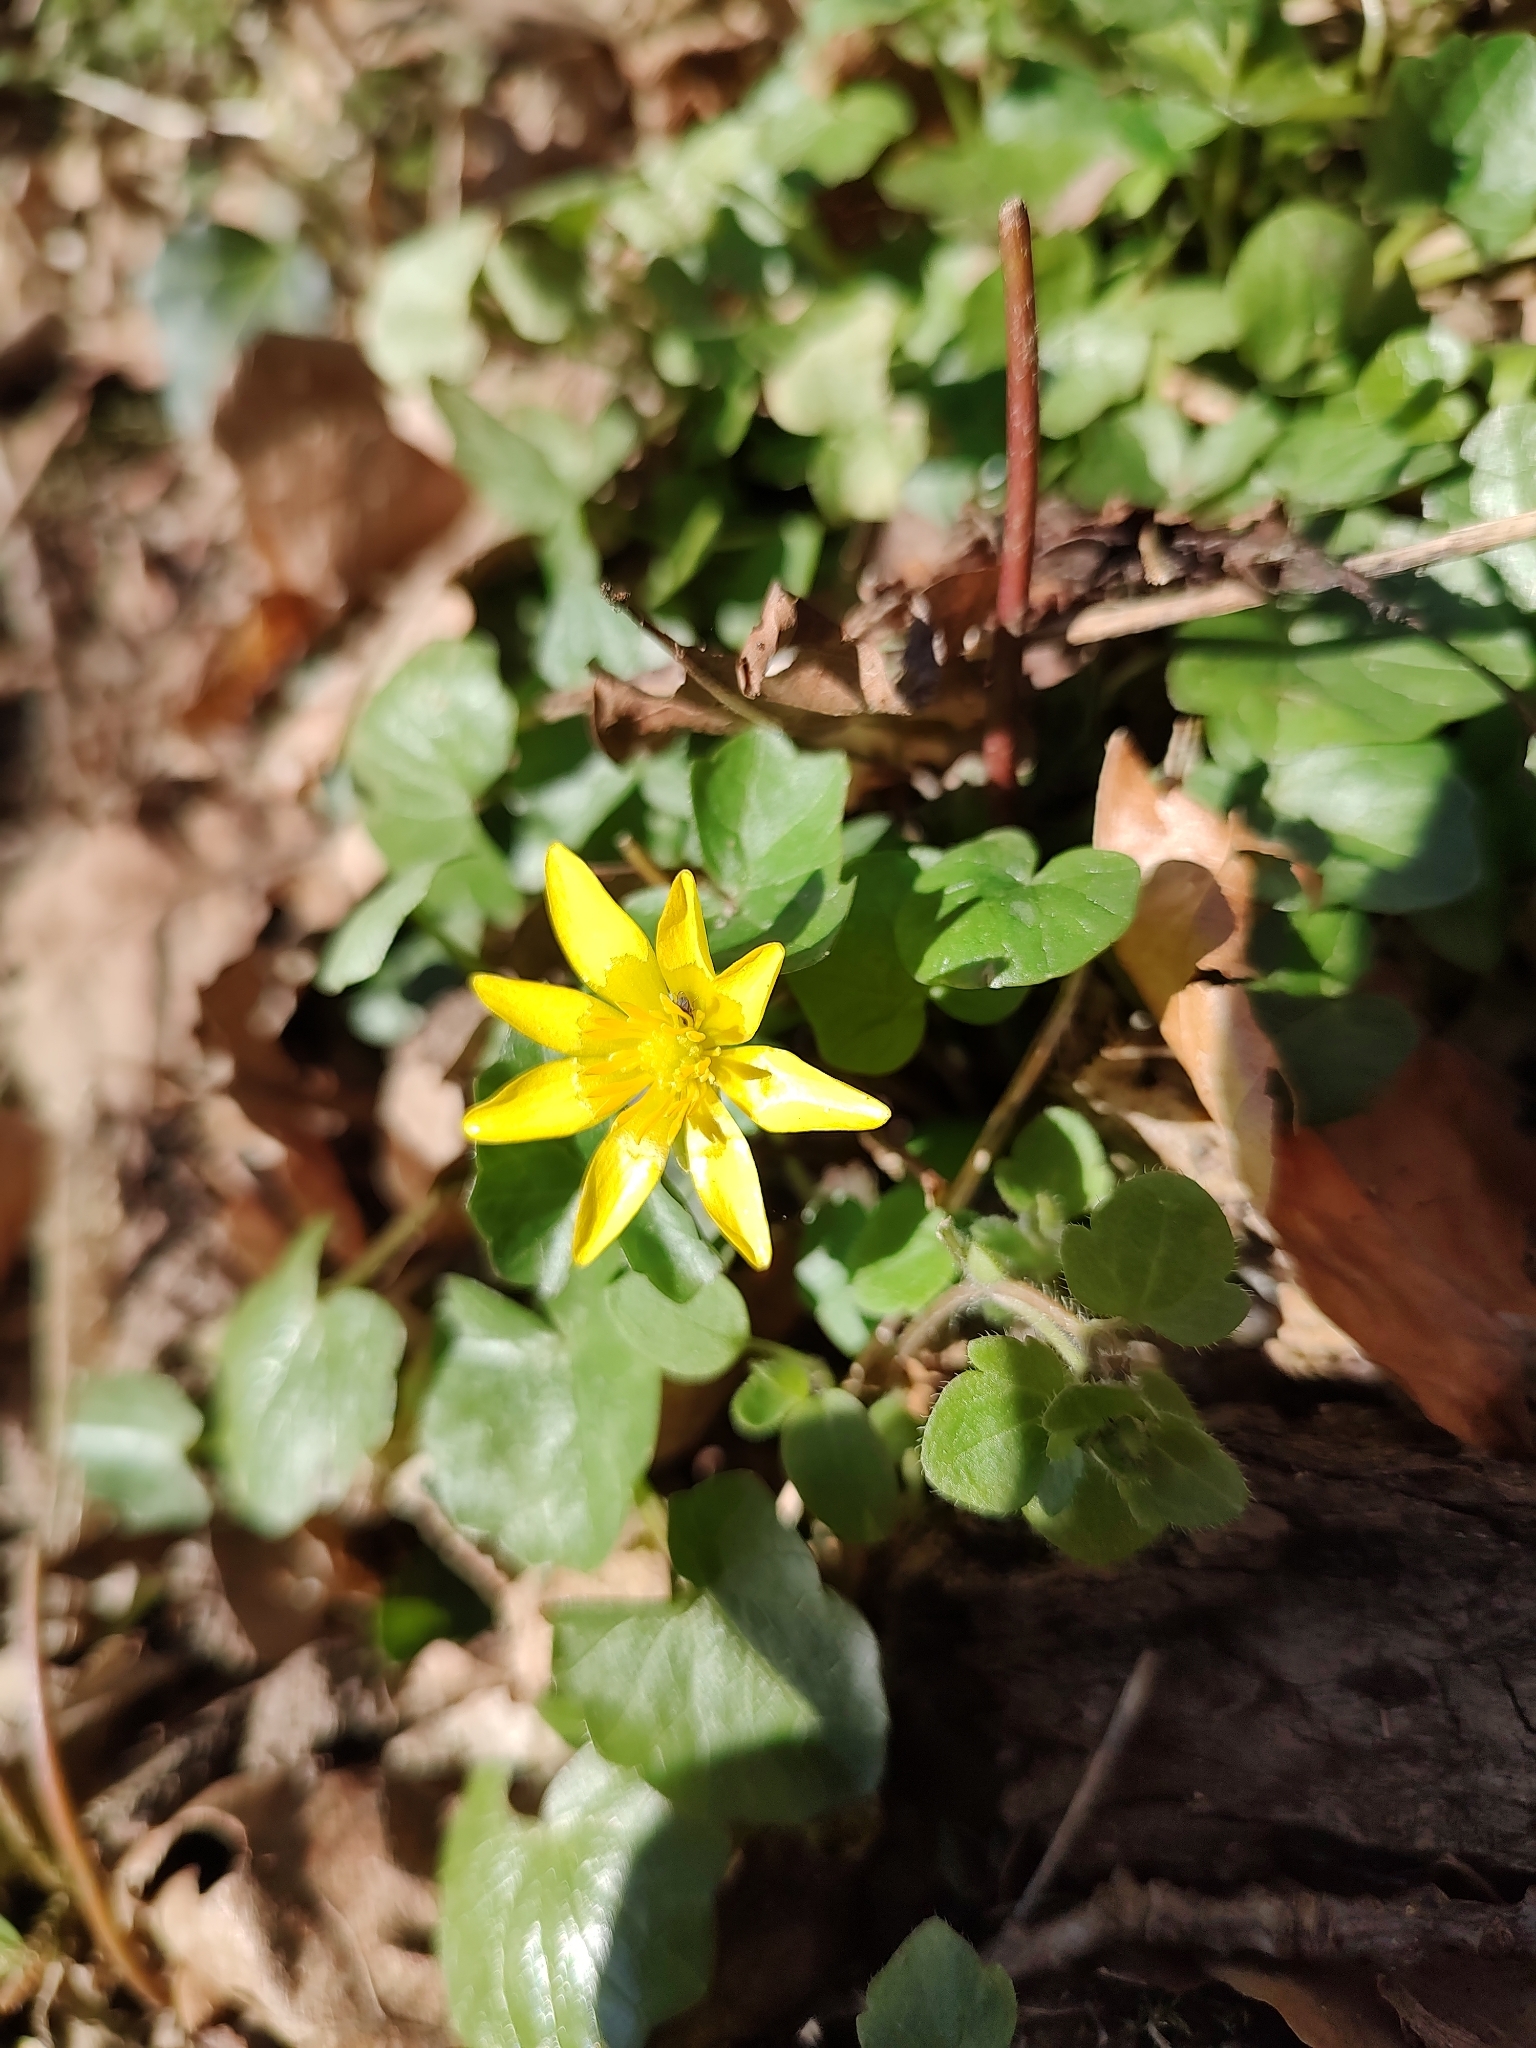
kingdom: Plantae
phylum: Tracheophyta
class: Magnoliopsida
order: Ranunculales
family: Ranunculaceae
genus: Ficaria
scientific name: Ficaria verna
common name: Lesser celandine
